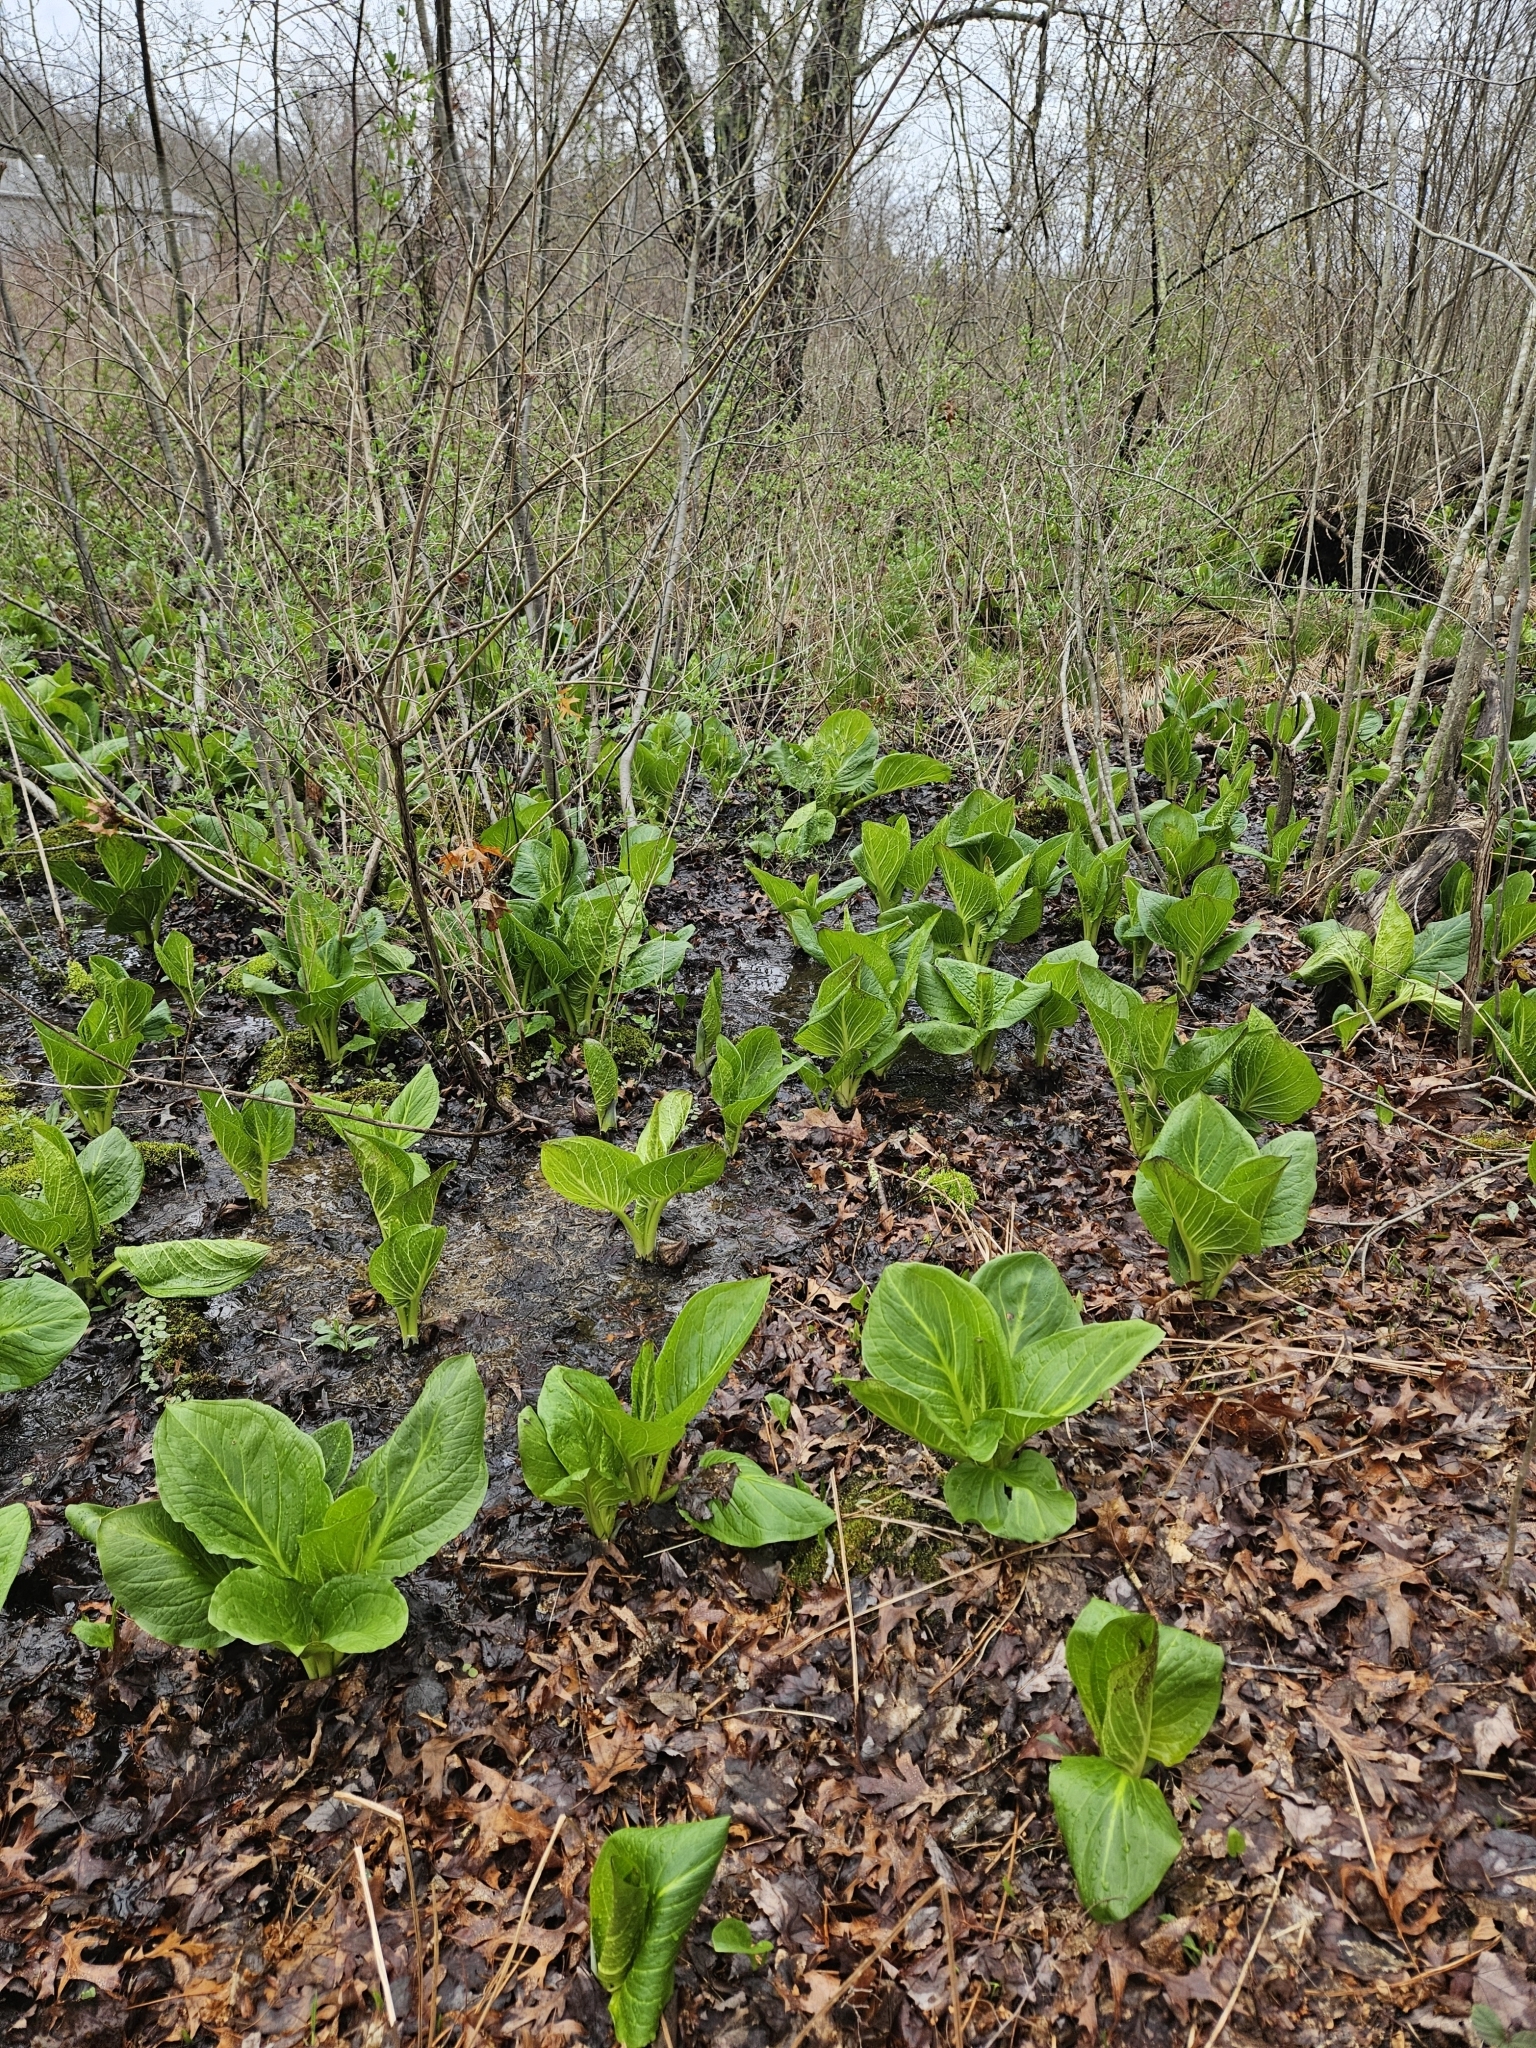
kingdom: Plantae
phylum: Tracheophyta
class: Liliopsida
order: Alismatales
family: Araceae
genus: Symplocarpus
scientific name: Symplocarpus foetidus
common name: Eastern skunk cabbage
